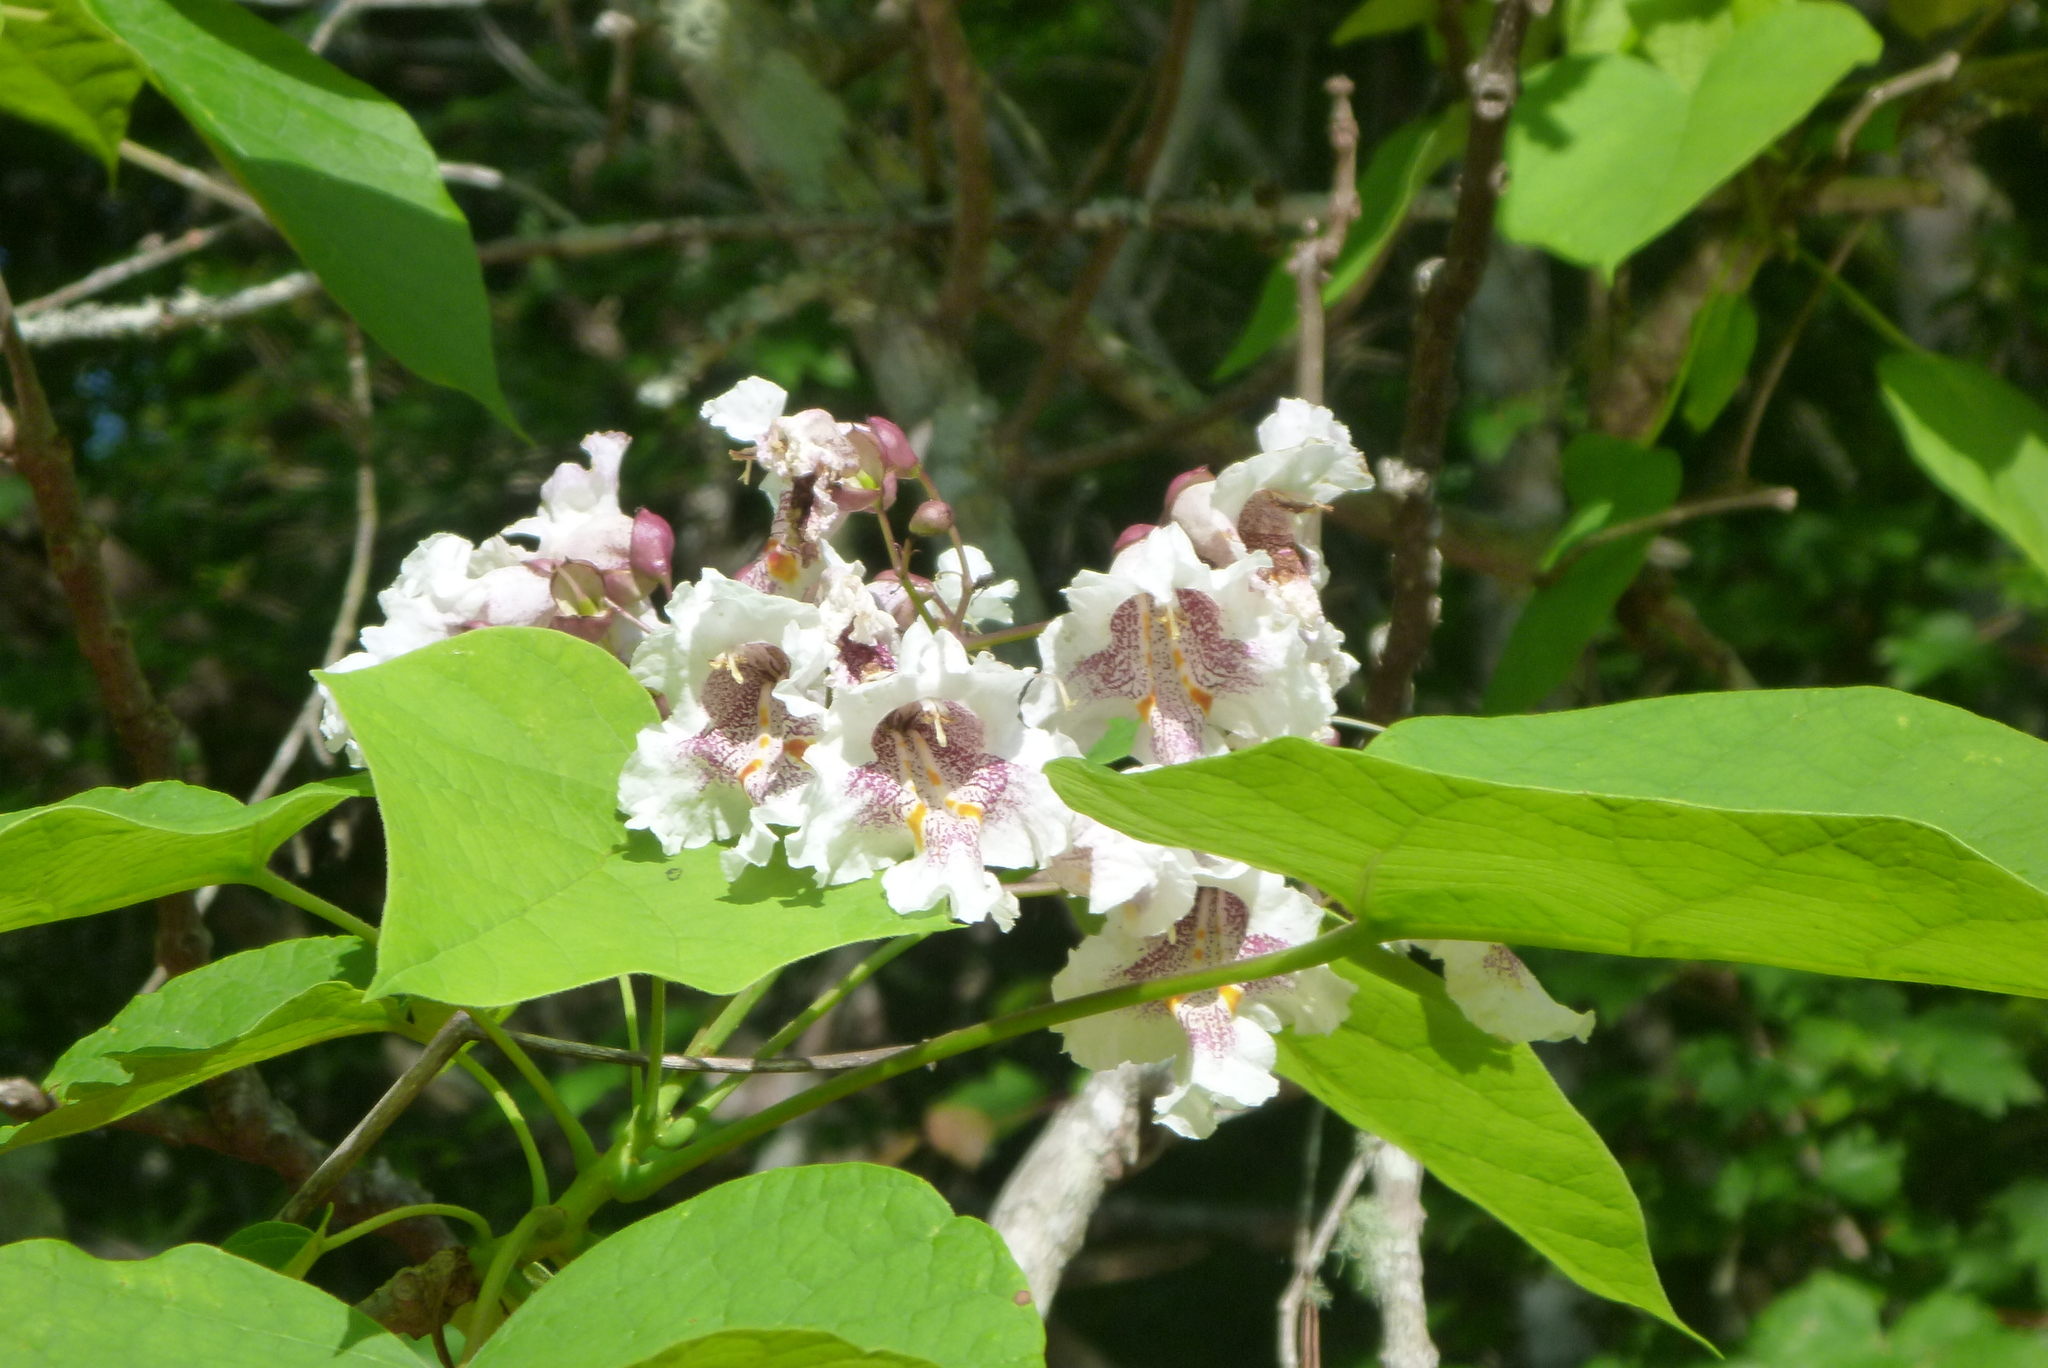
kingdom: Plantae
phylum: Tracheophyta
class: Magnoliopsida
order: Lamiales
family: Bignoniaceae
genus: Catalpa
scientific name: Catalpa bignonioides
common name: Southern catalpa
